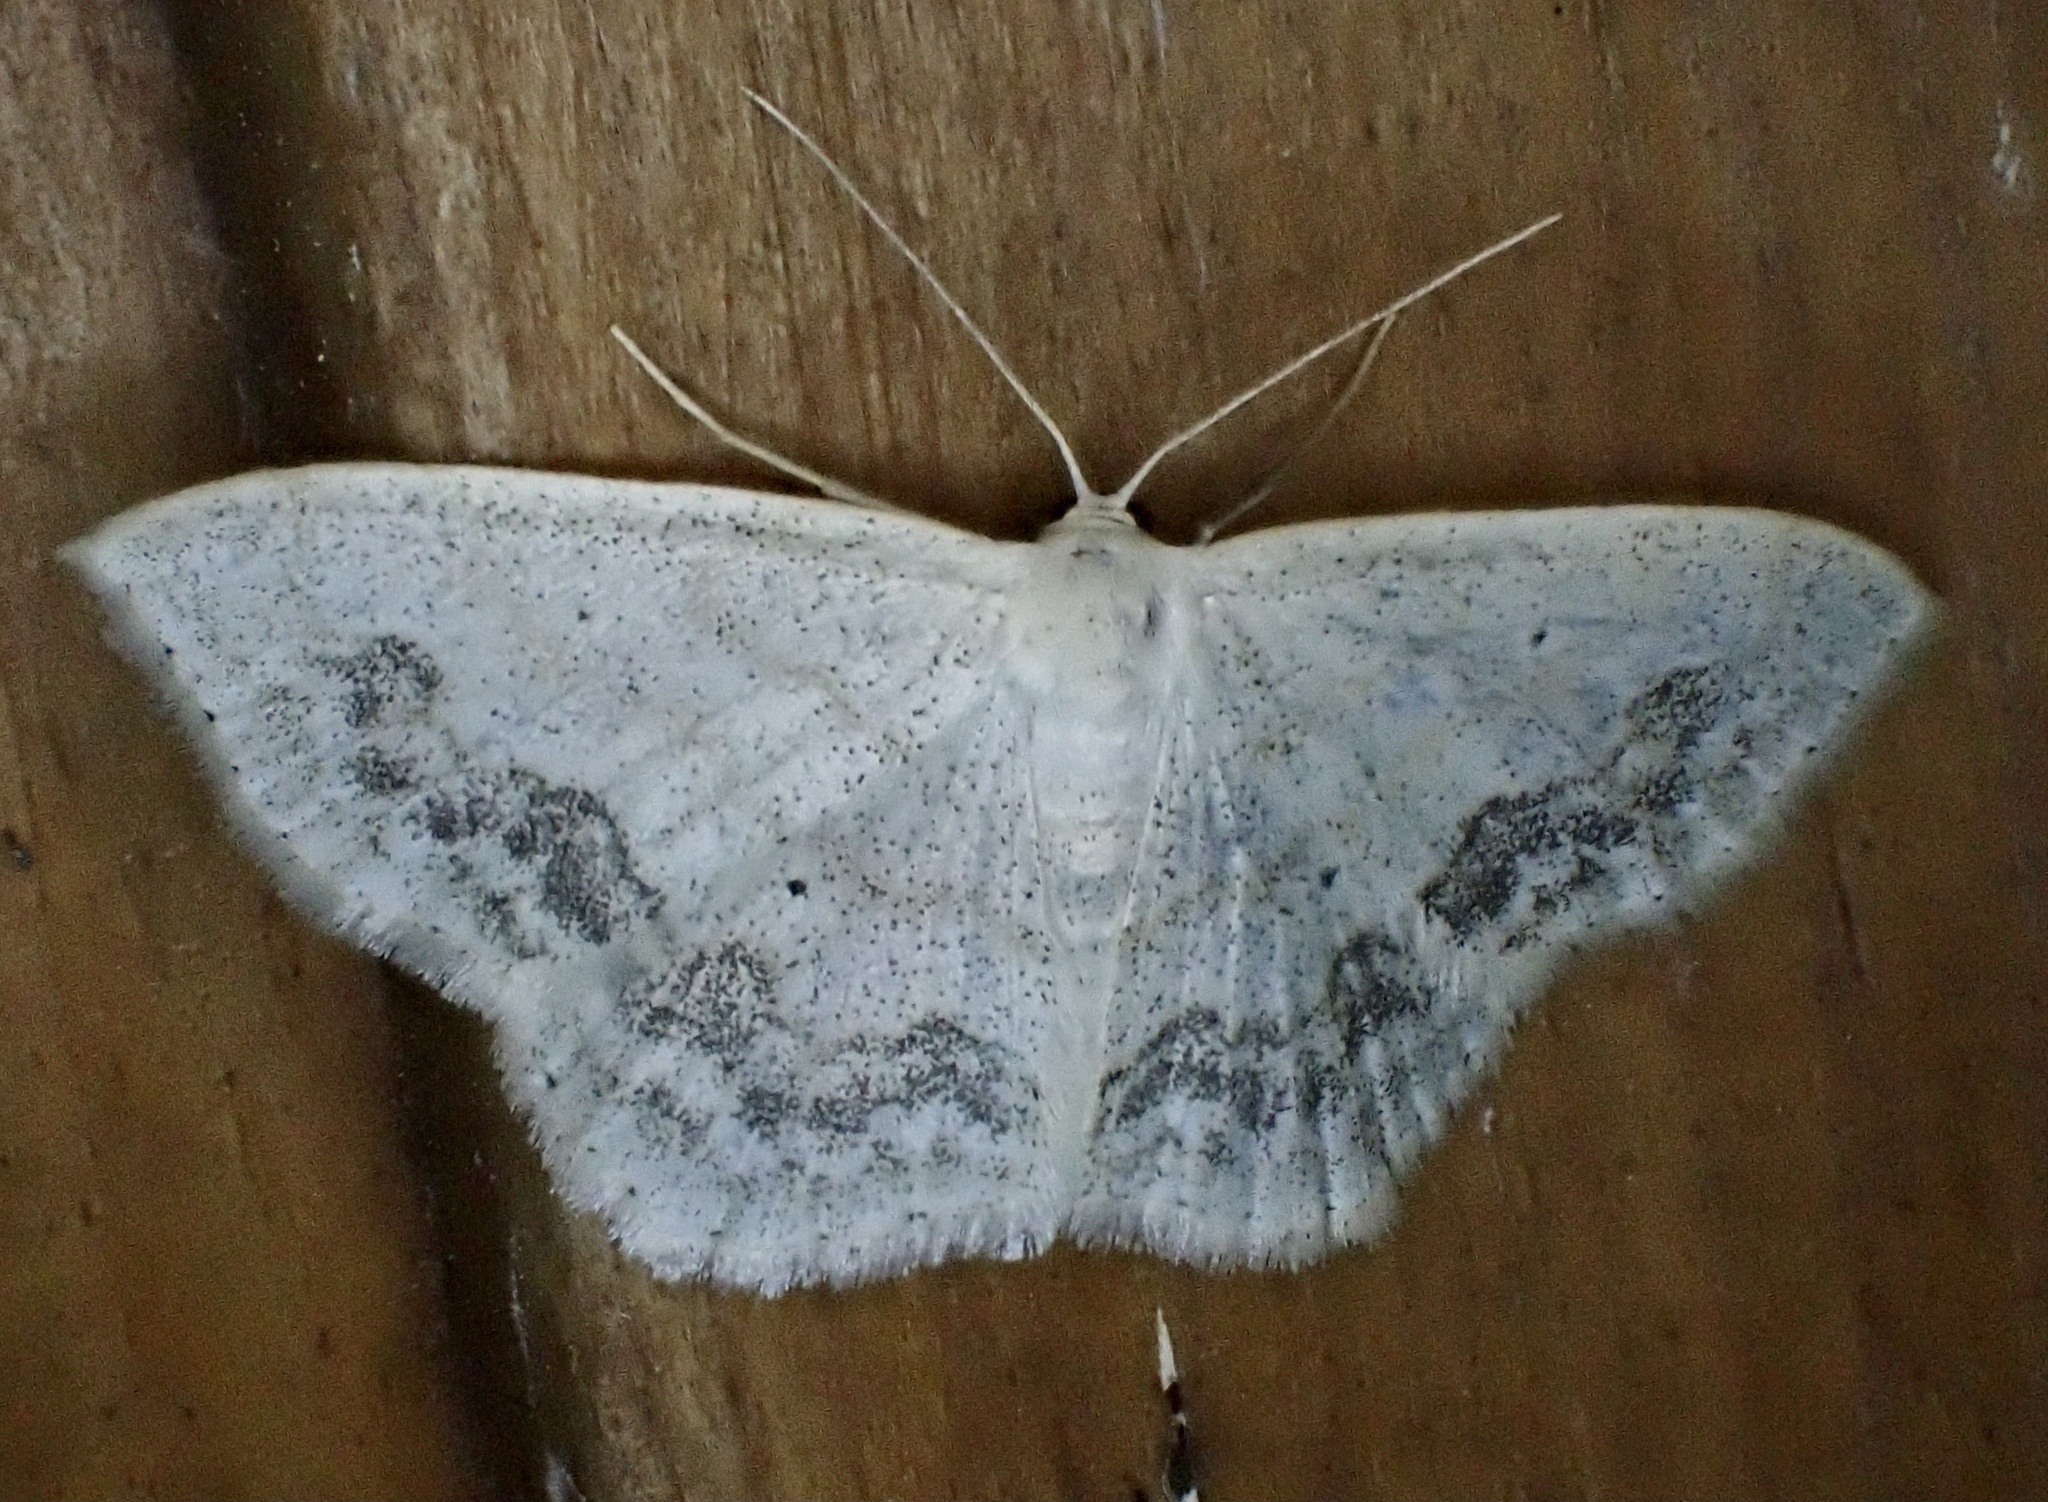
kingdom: Animalia
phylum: Arthropoda
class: Insecta
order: Lepidoptera
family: Geometridae
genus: Scopula
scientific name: Scopula limboundata
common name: Large lace border
